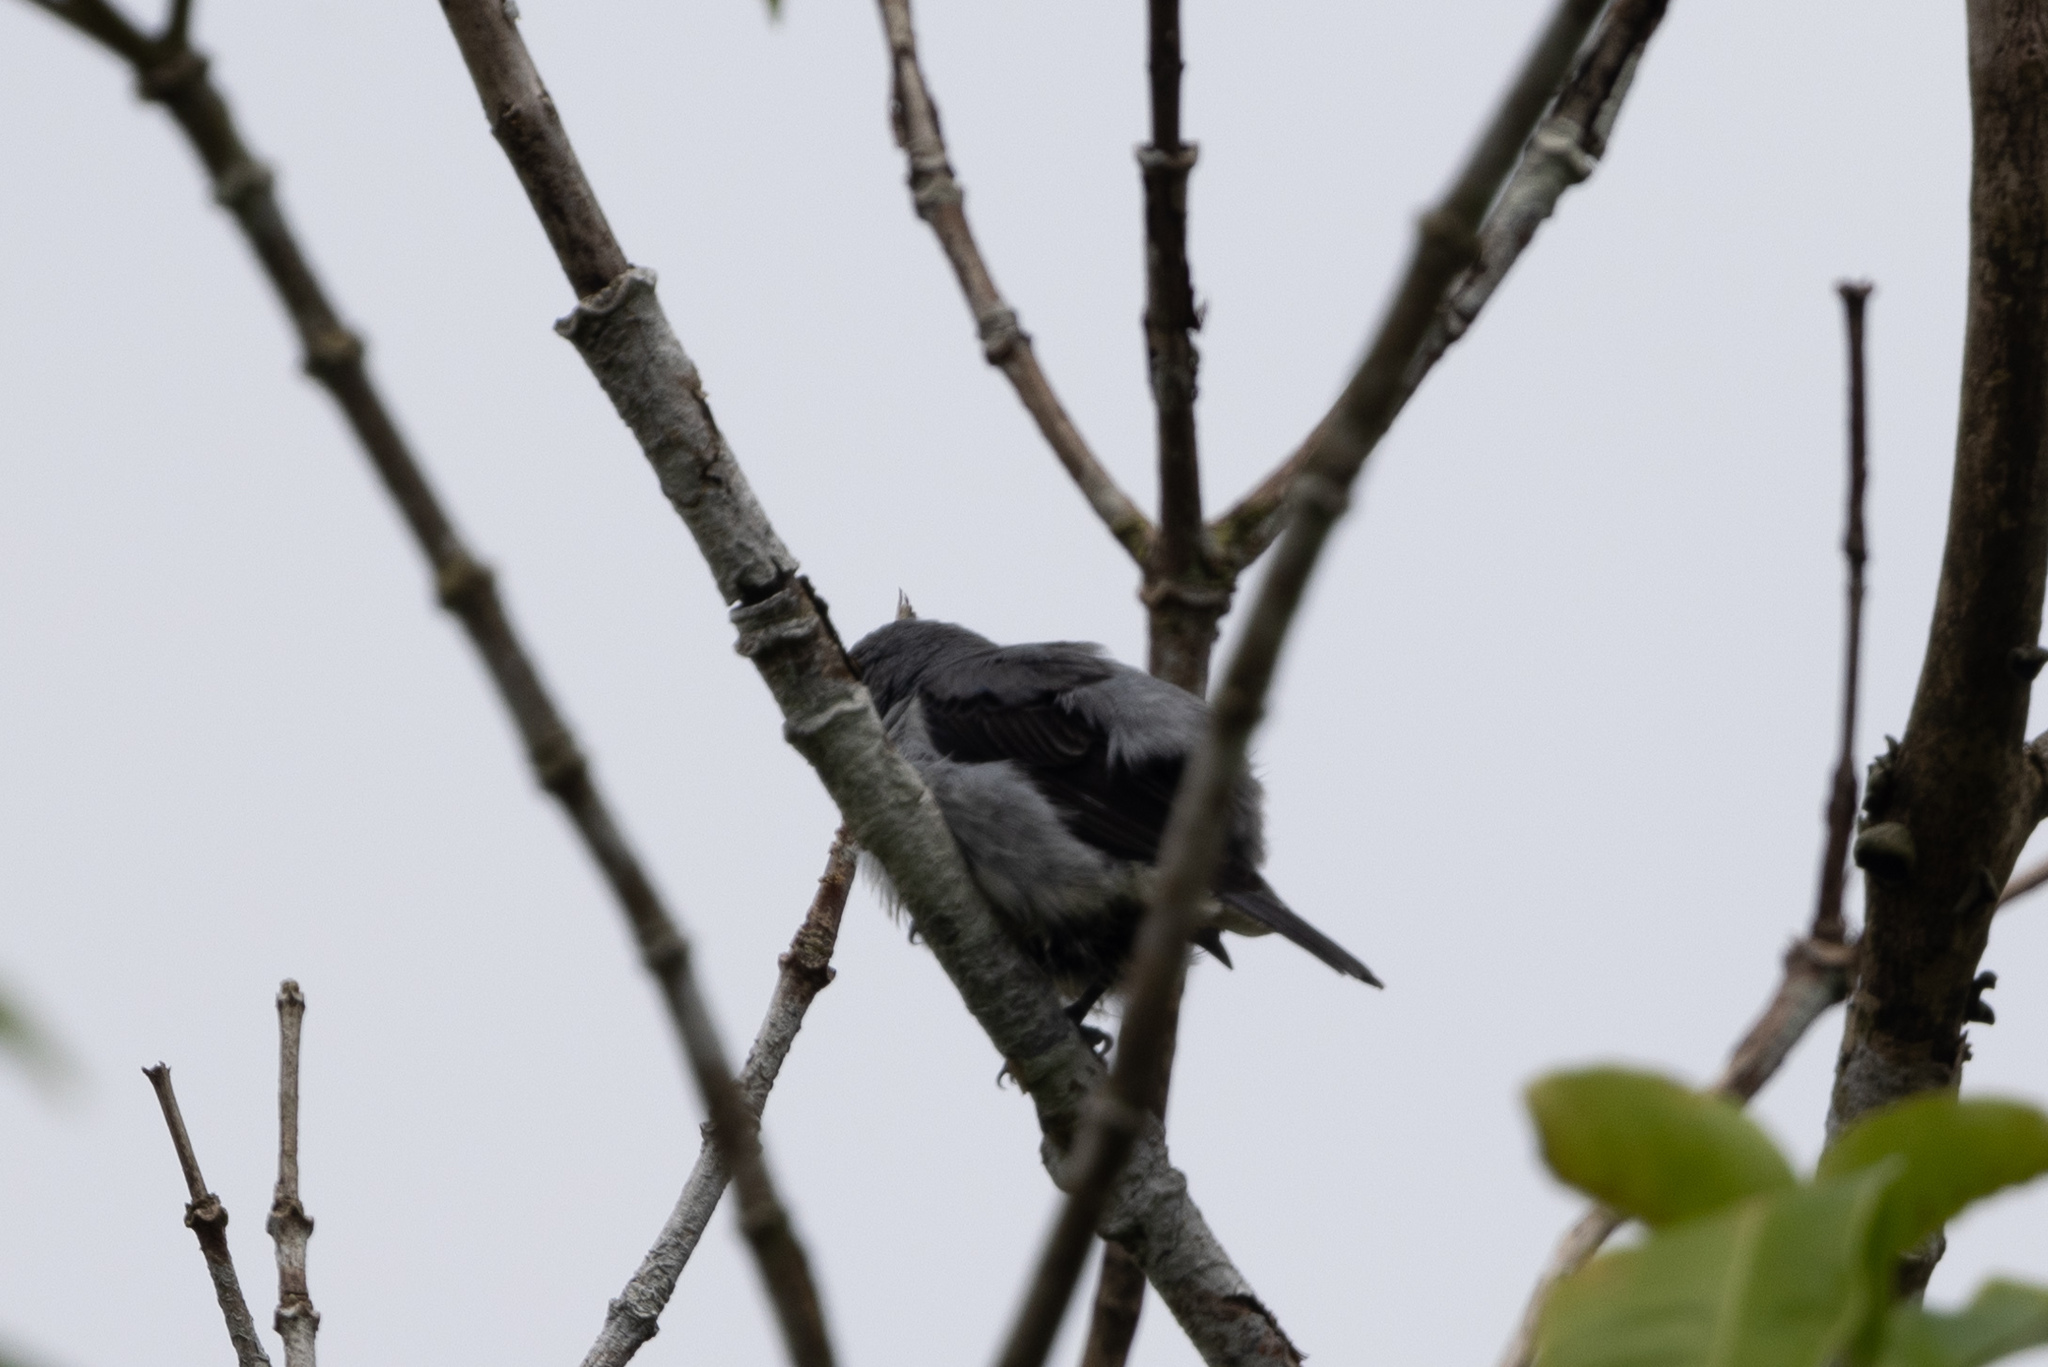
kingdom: Animalia
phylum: Chordata
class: Aves
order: Passeriformes
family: Thraupidae
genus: Tangara
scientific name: Tangara inornata
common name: Plain-colored tanager
